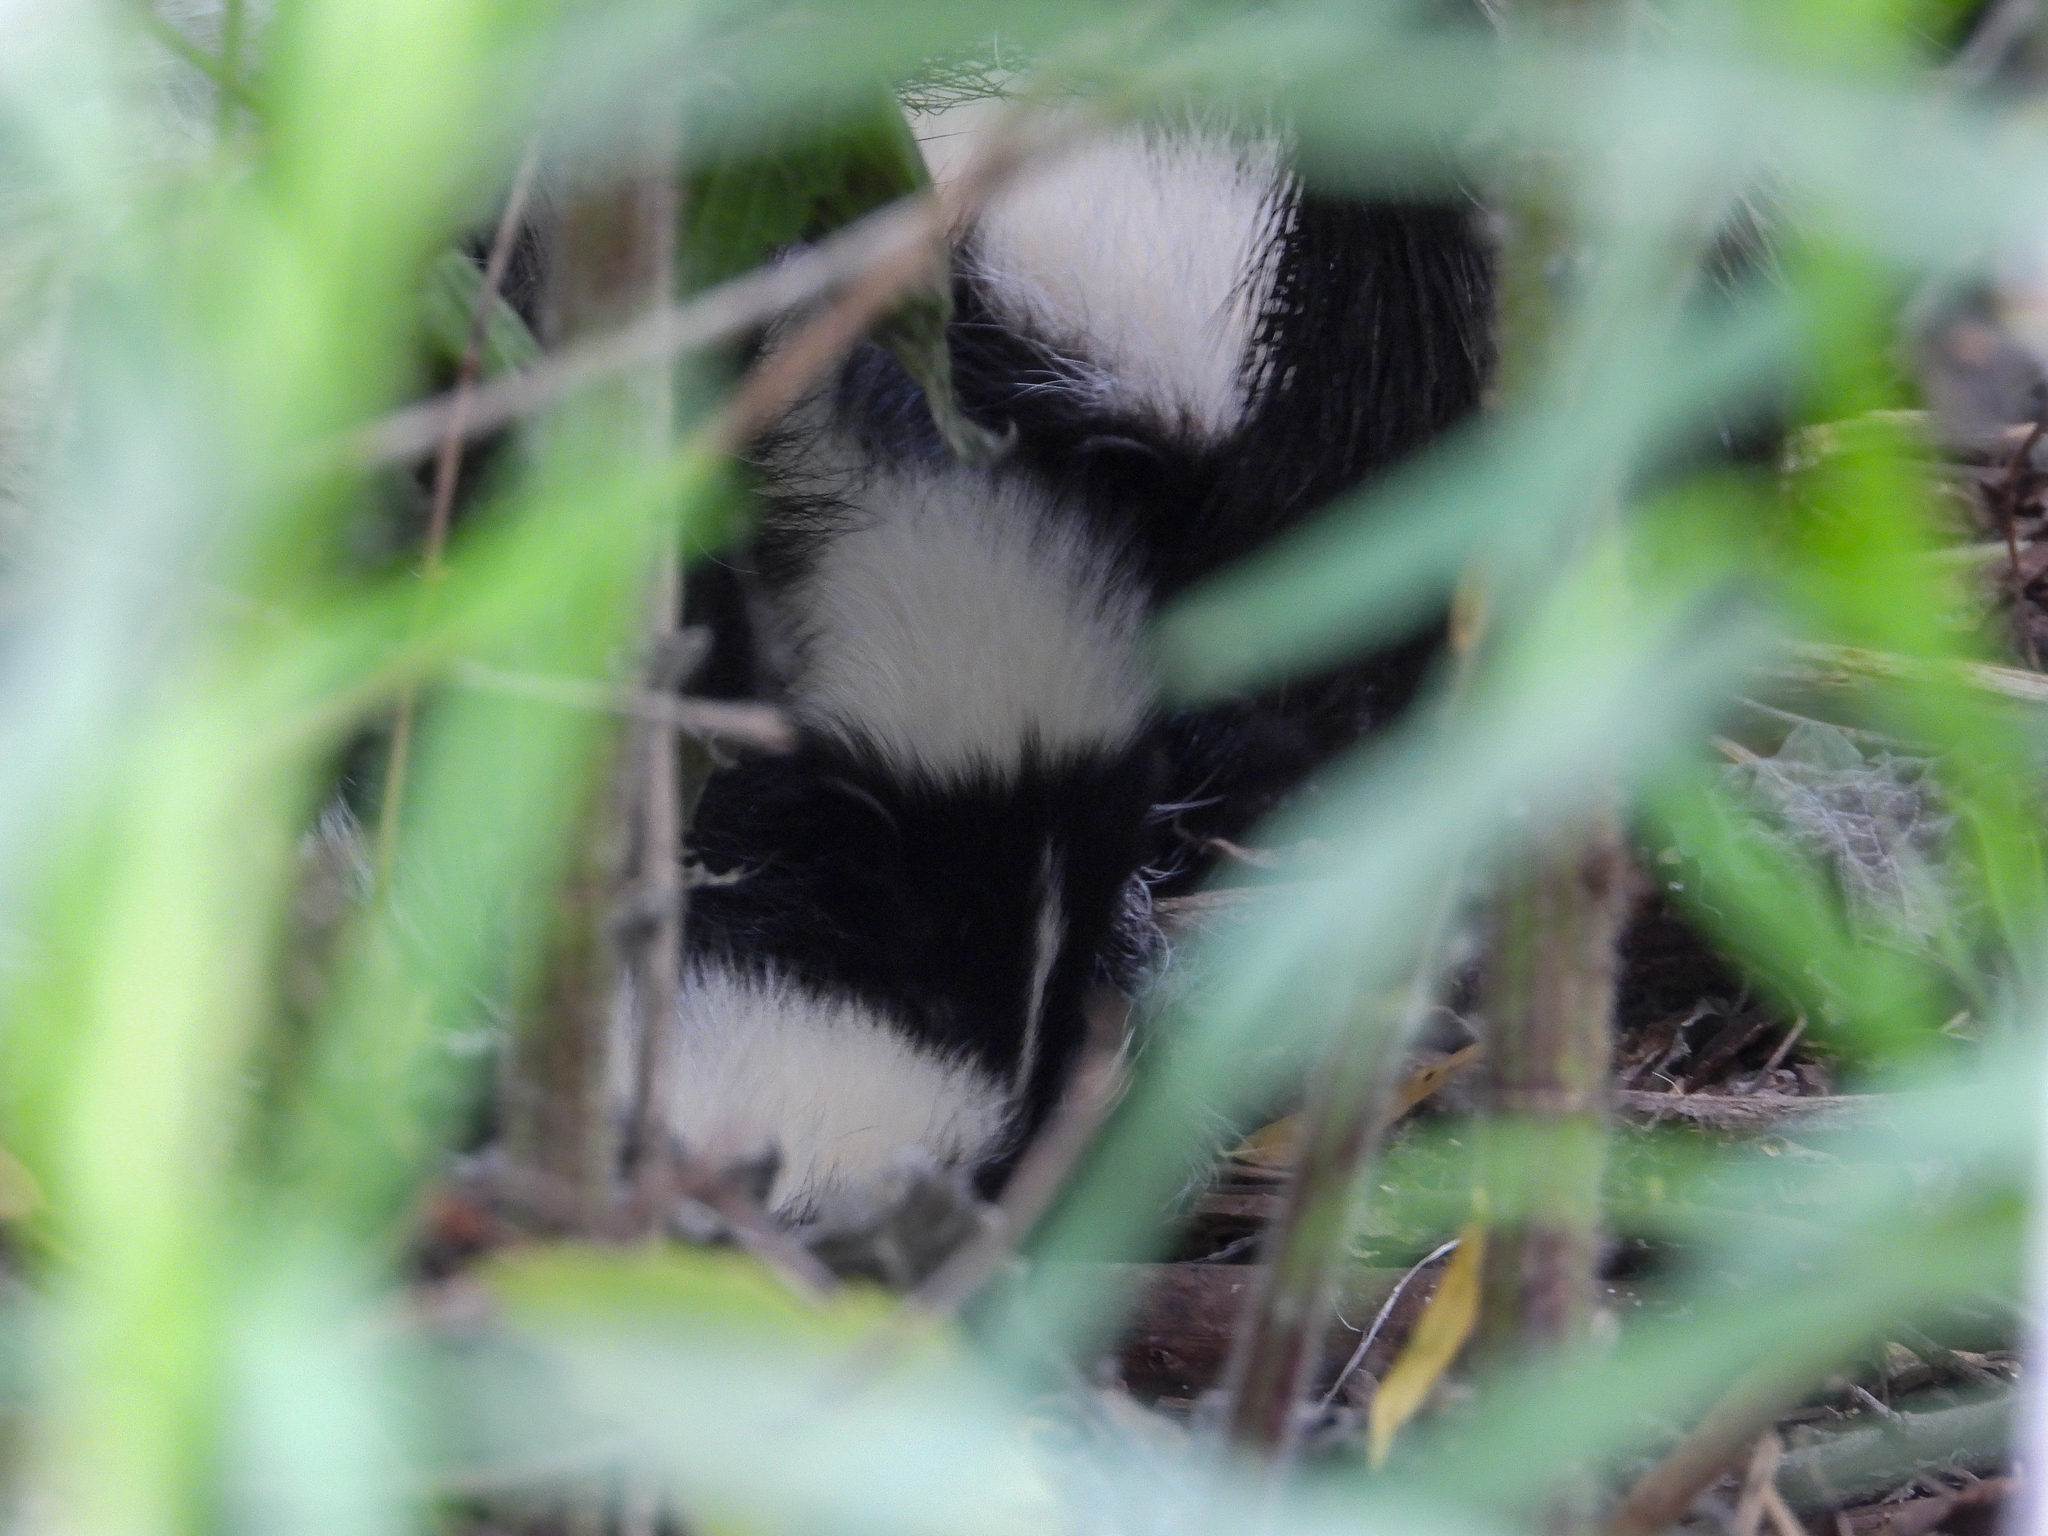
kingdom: Animalia
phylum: Chordata
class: Mammalia
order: Carnivora
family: Mephitidae
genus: Mephitis
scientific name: Mephitis mephitis
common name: Striped skunk
